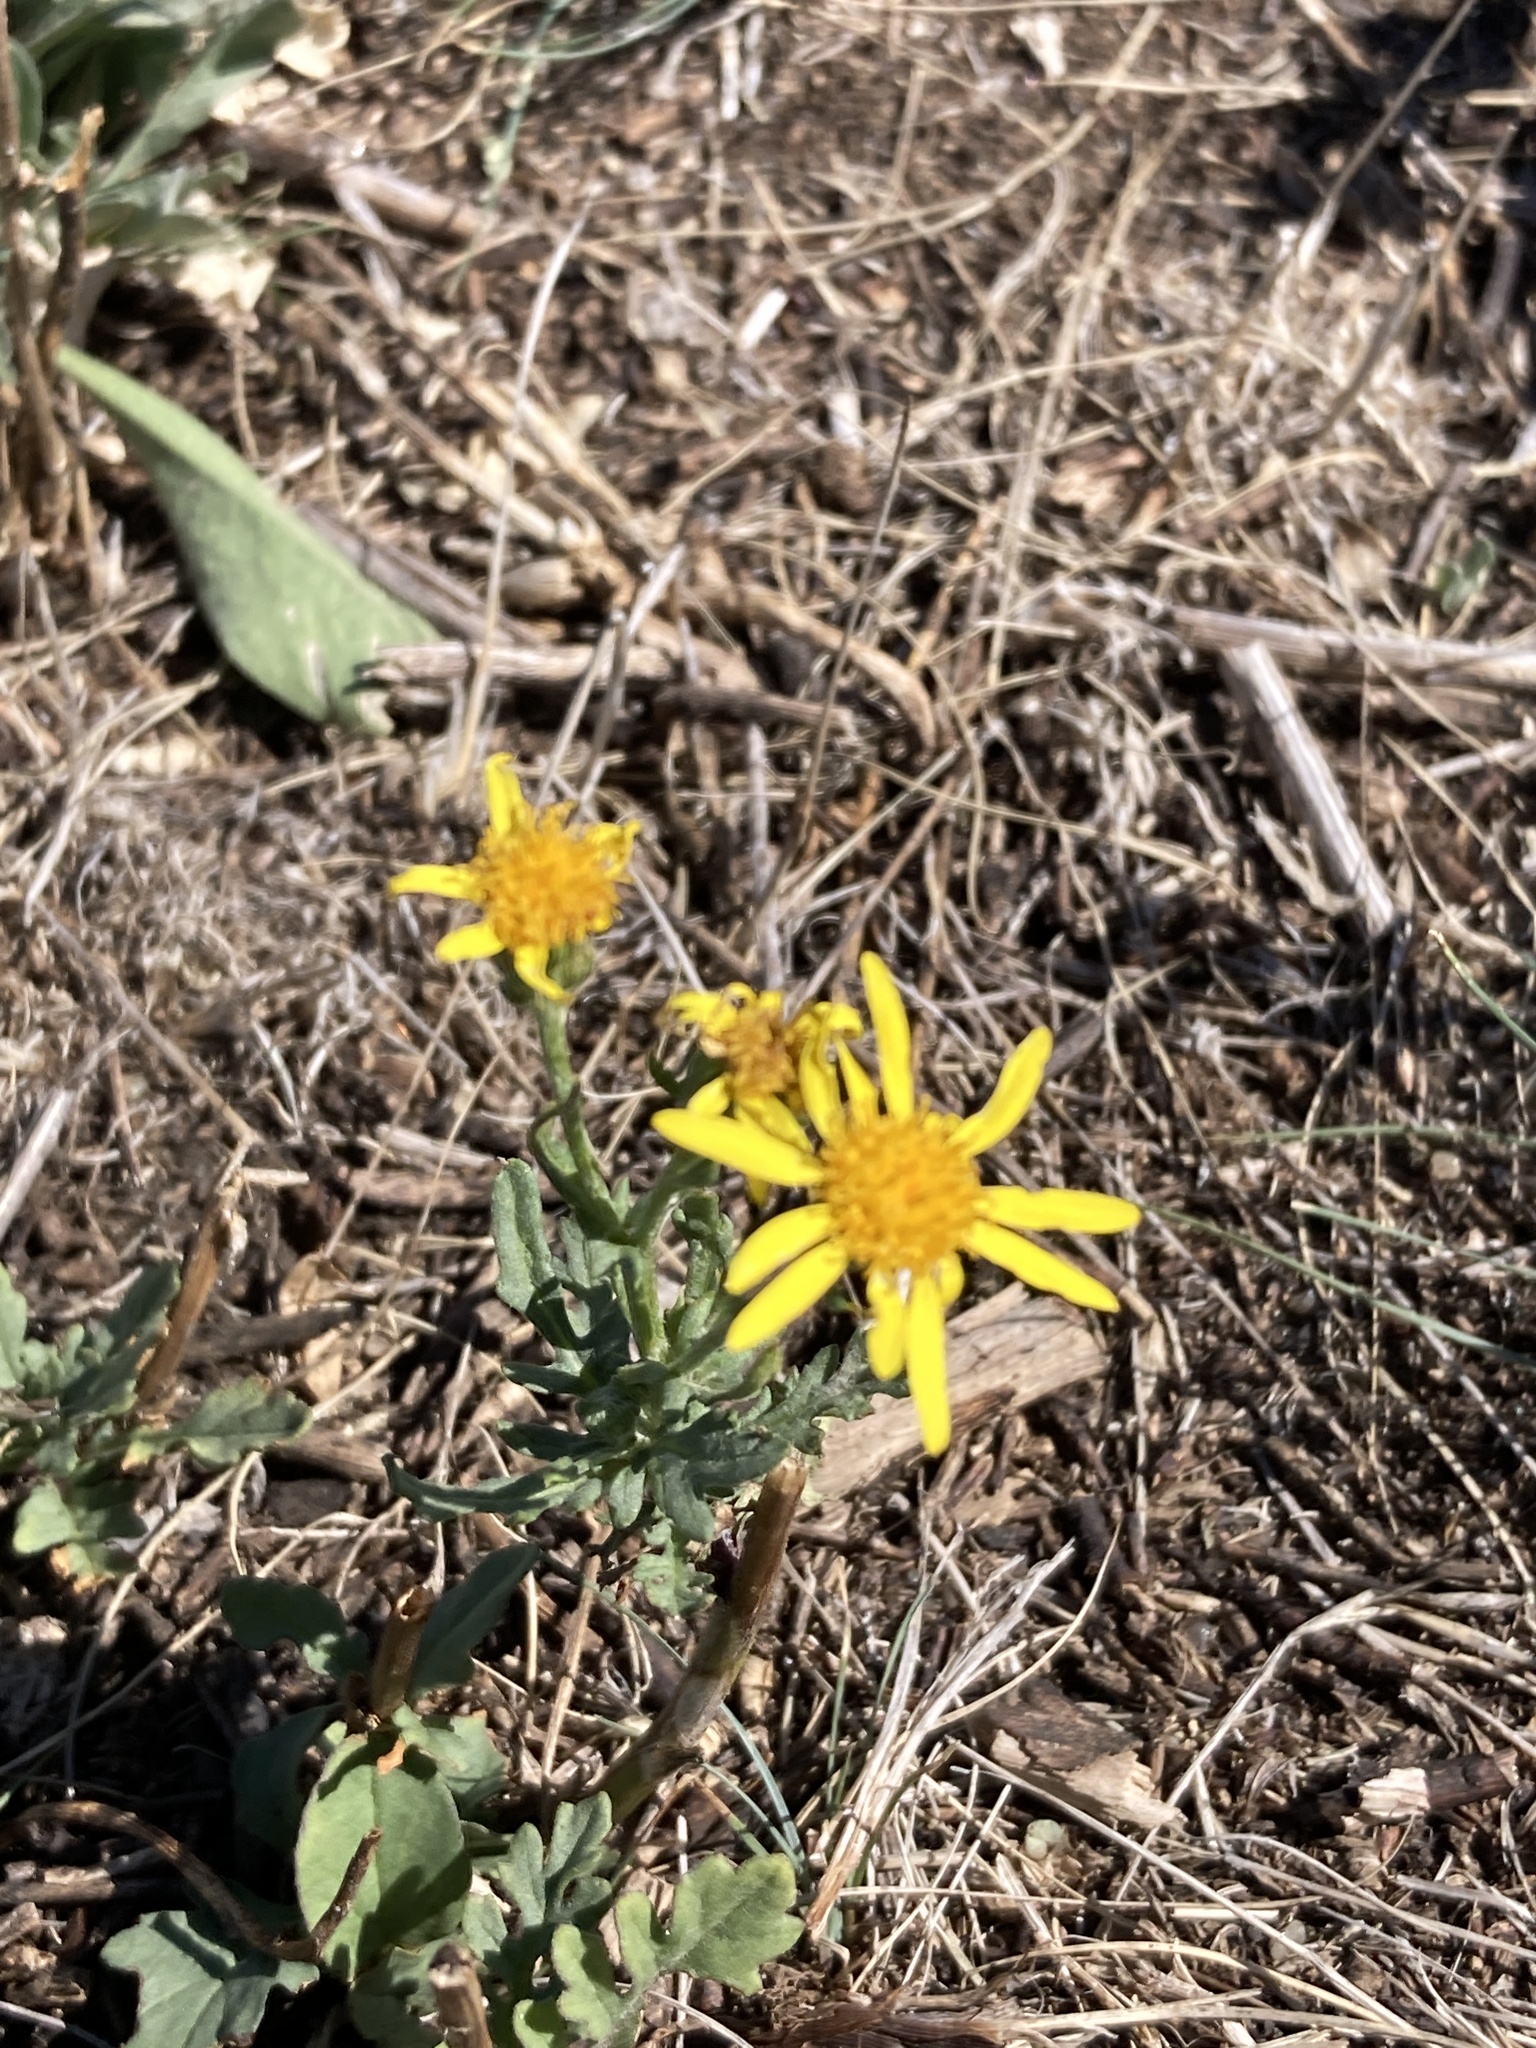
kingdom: Plantae
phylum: Tracheophyta
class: Magnoliopsida
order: Asterales
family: Asteraceae
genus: Jacobaea
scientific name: Jacobaea vulgaris
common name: Stinking willie
